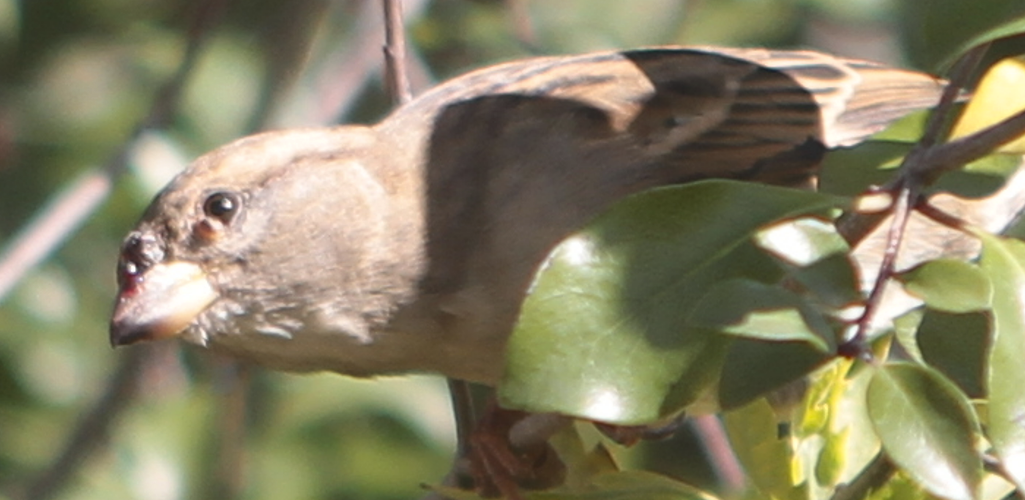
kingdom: Viruses
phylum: Nucleocytoviricota
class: Pokkesviricetes
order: Chitovirales
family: Poxviridae
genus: Avipoxvirus
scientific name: Avipoxvirus
